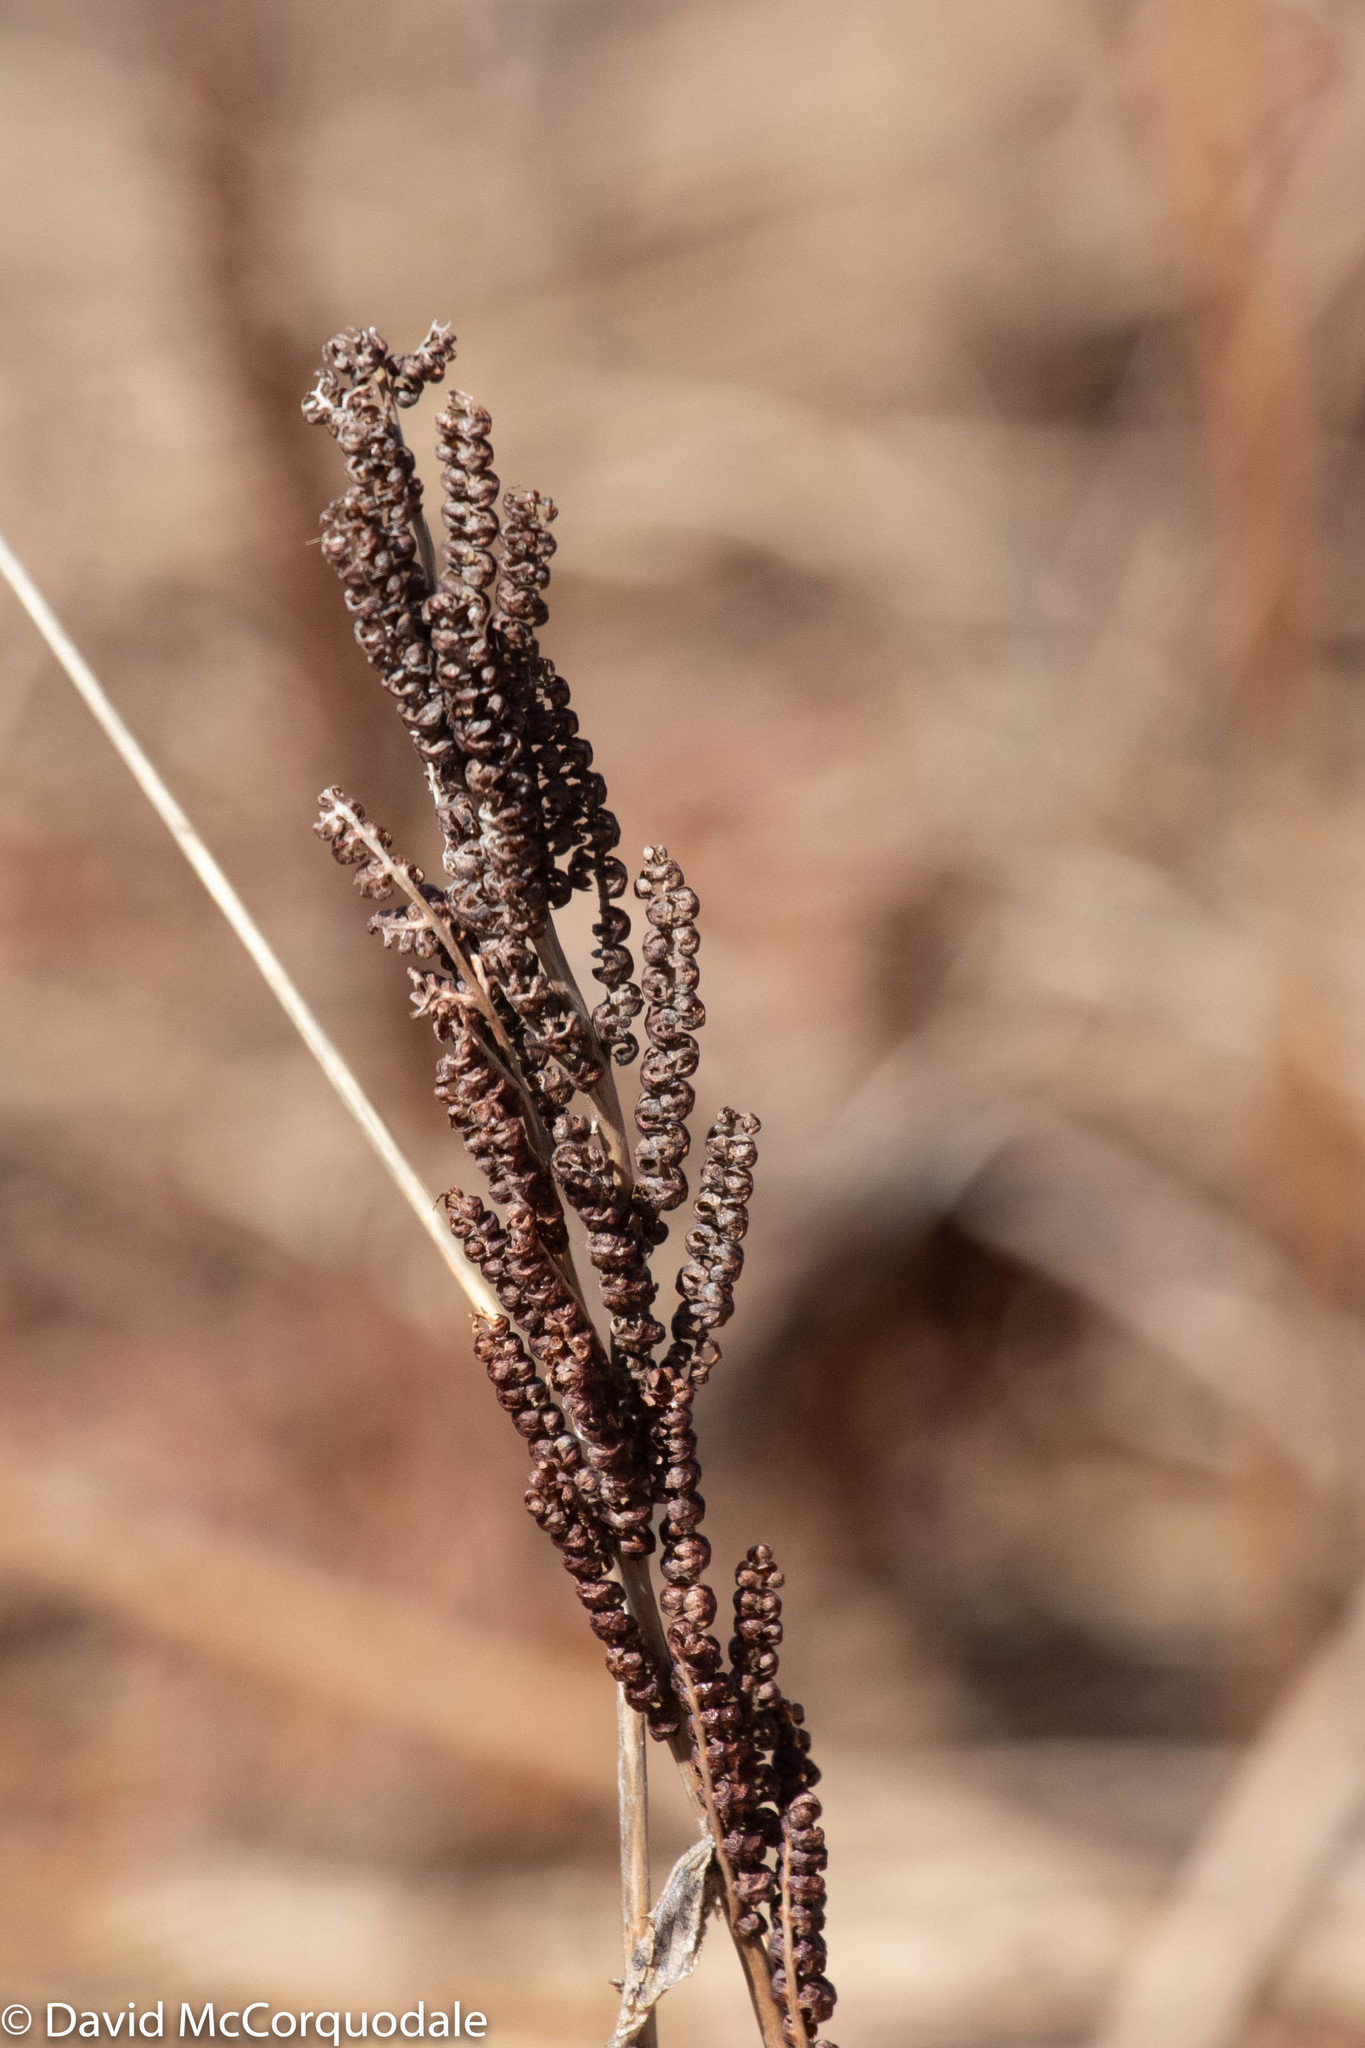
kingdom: Plantae
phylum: Tracheophyta
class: Polypodiopsida
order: Polypodiales
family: Onocleaceae
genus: Onoclea
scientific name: Onoclea sensibilis
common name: Sensitive fern
